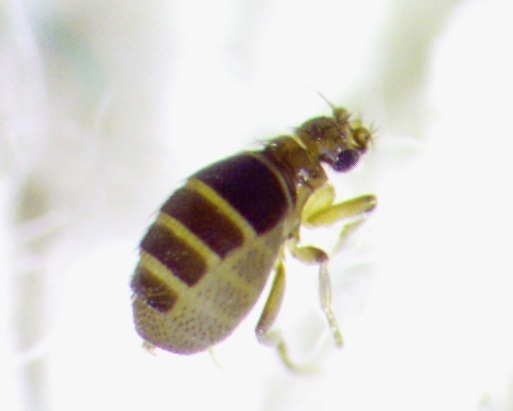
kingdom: Animalia
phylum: Arthropoda
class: Insecta
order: Diptera
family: Phoridae
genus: Puliciphora
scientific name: Puliciphora borinquenensis
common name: Hump-backed fly
